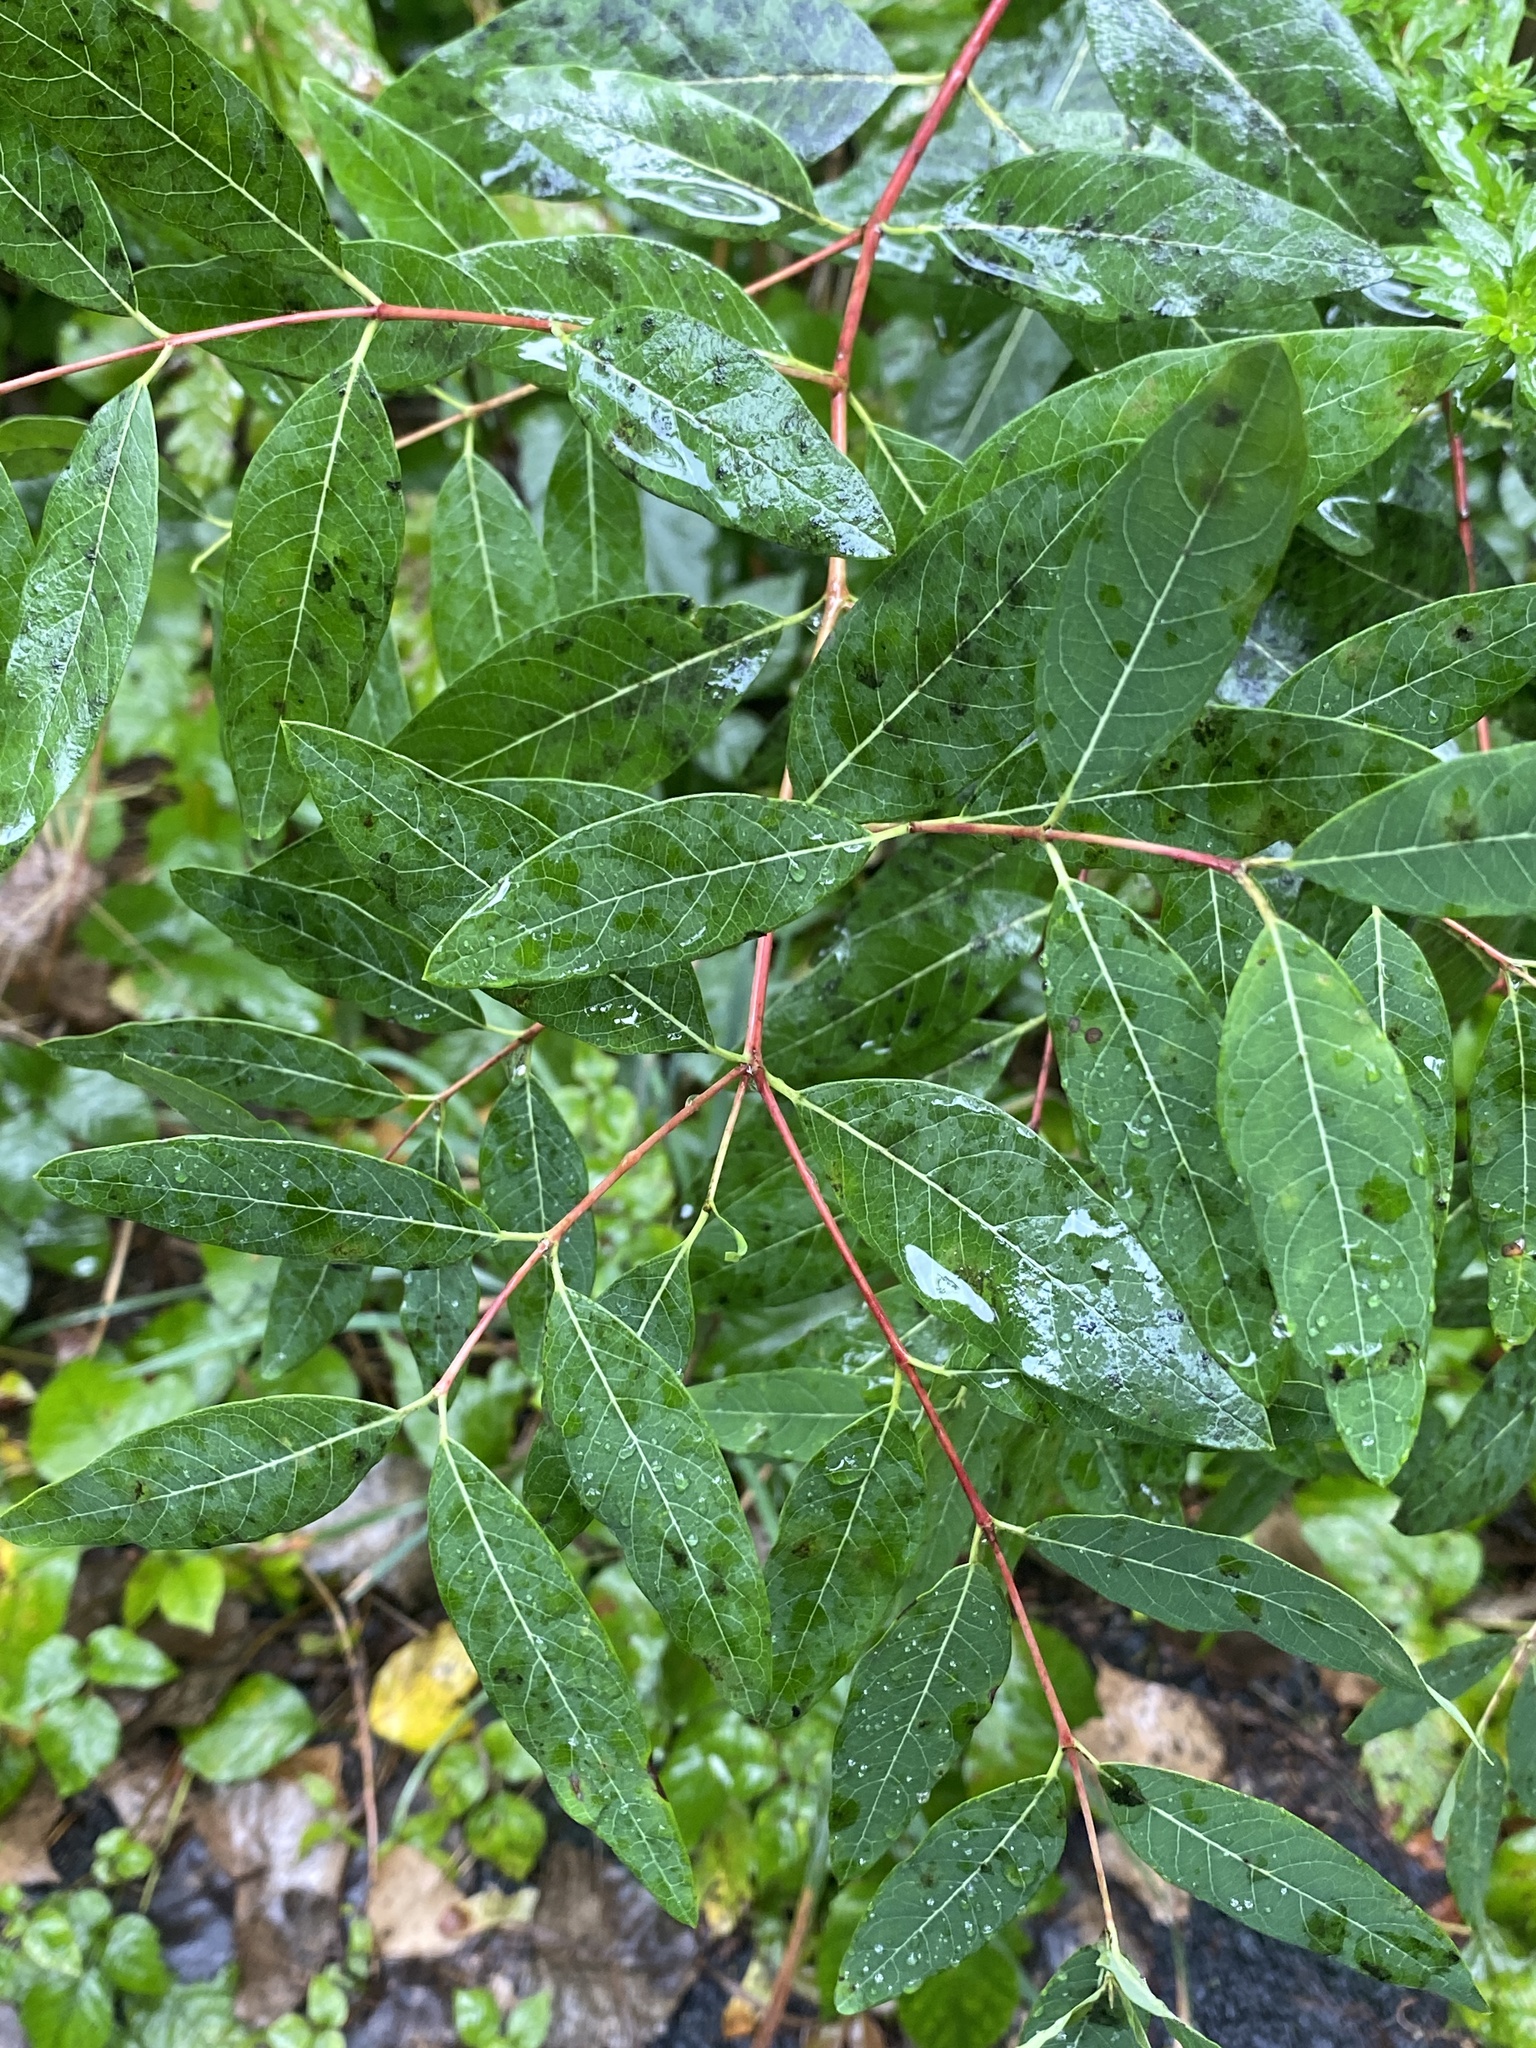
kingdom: Plantae
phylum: Tracheophyta
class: Magnoliopsida
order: Gentianales
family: Apocynaceae
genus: Apocynum
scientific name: Apocynum cannabinum
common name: Hemp dogbane
